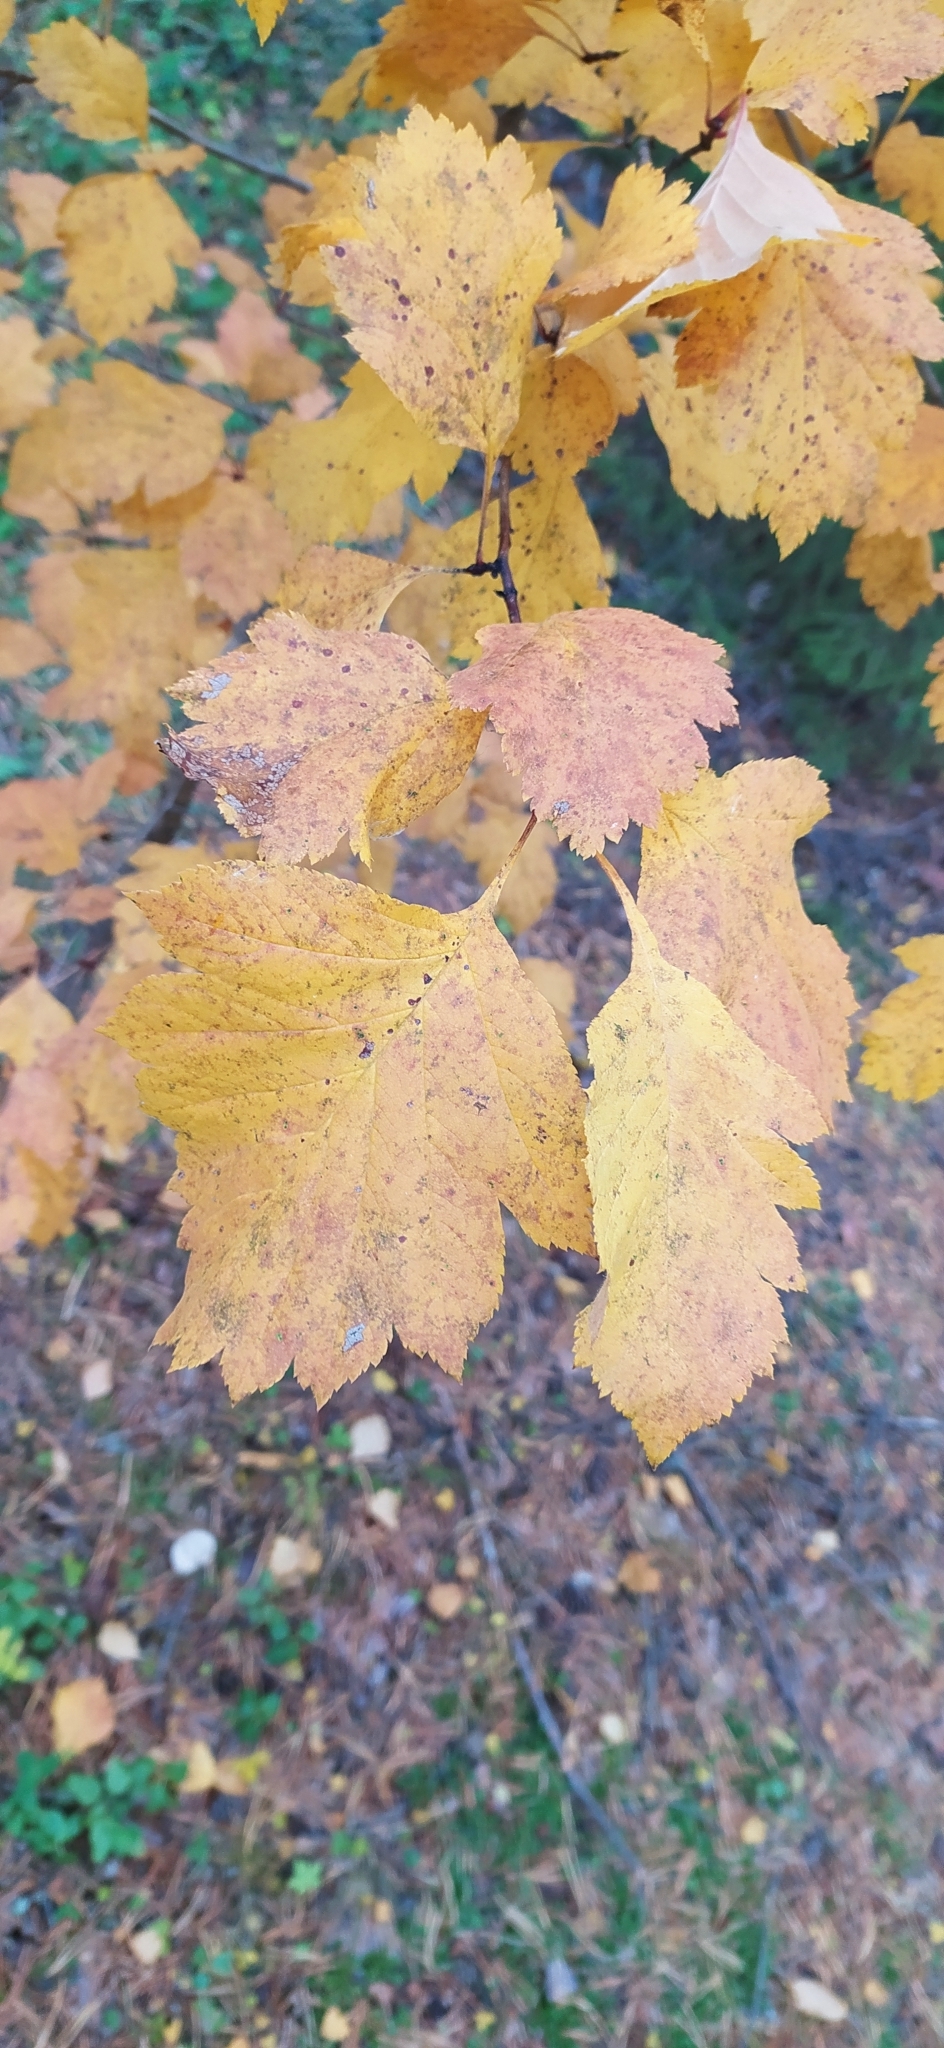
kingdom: Plantae
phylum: Tracheophyta
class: Magnoliopsida
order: Rosales
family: Rosaceae
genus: Crataegus
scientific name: Crataegus sanguinea
